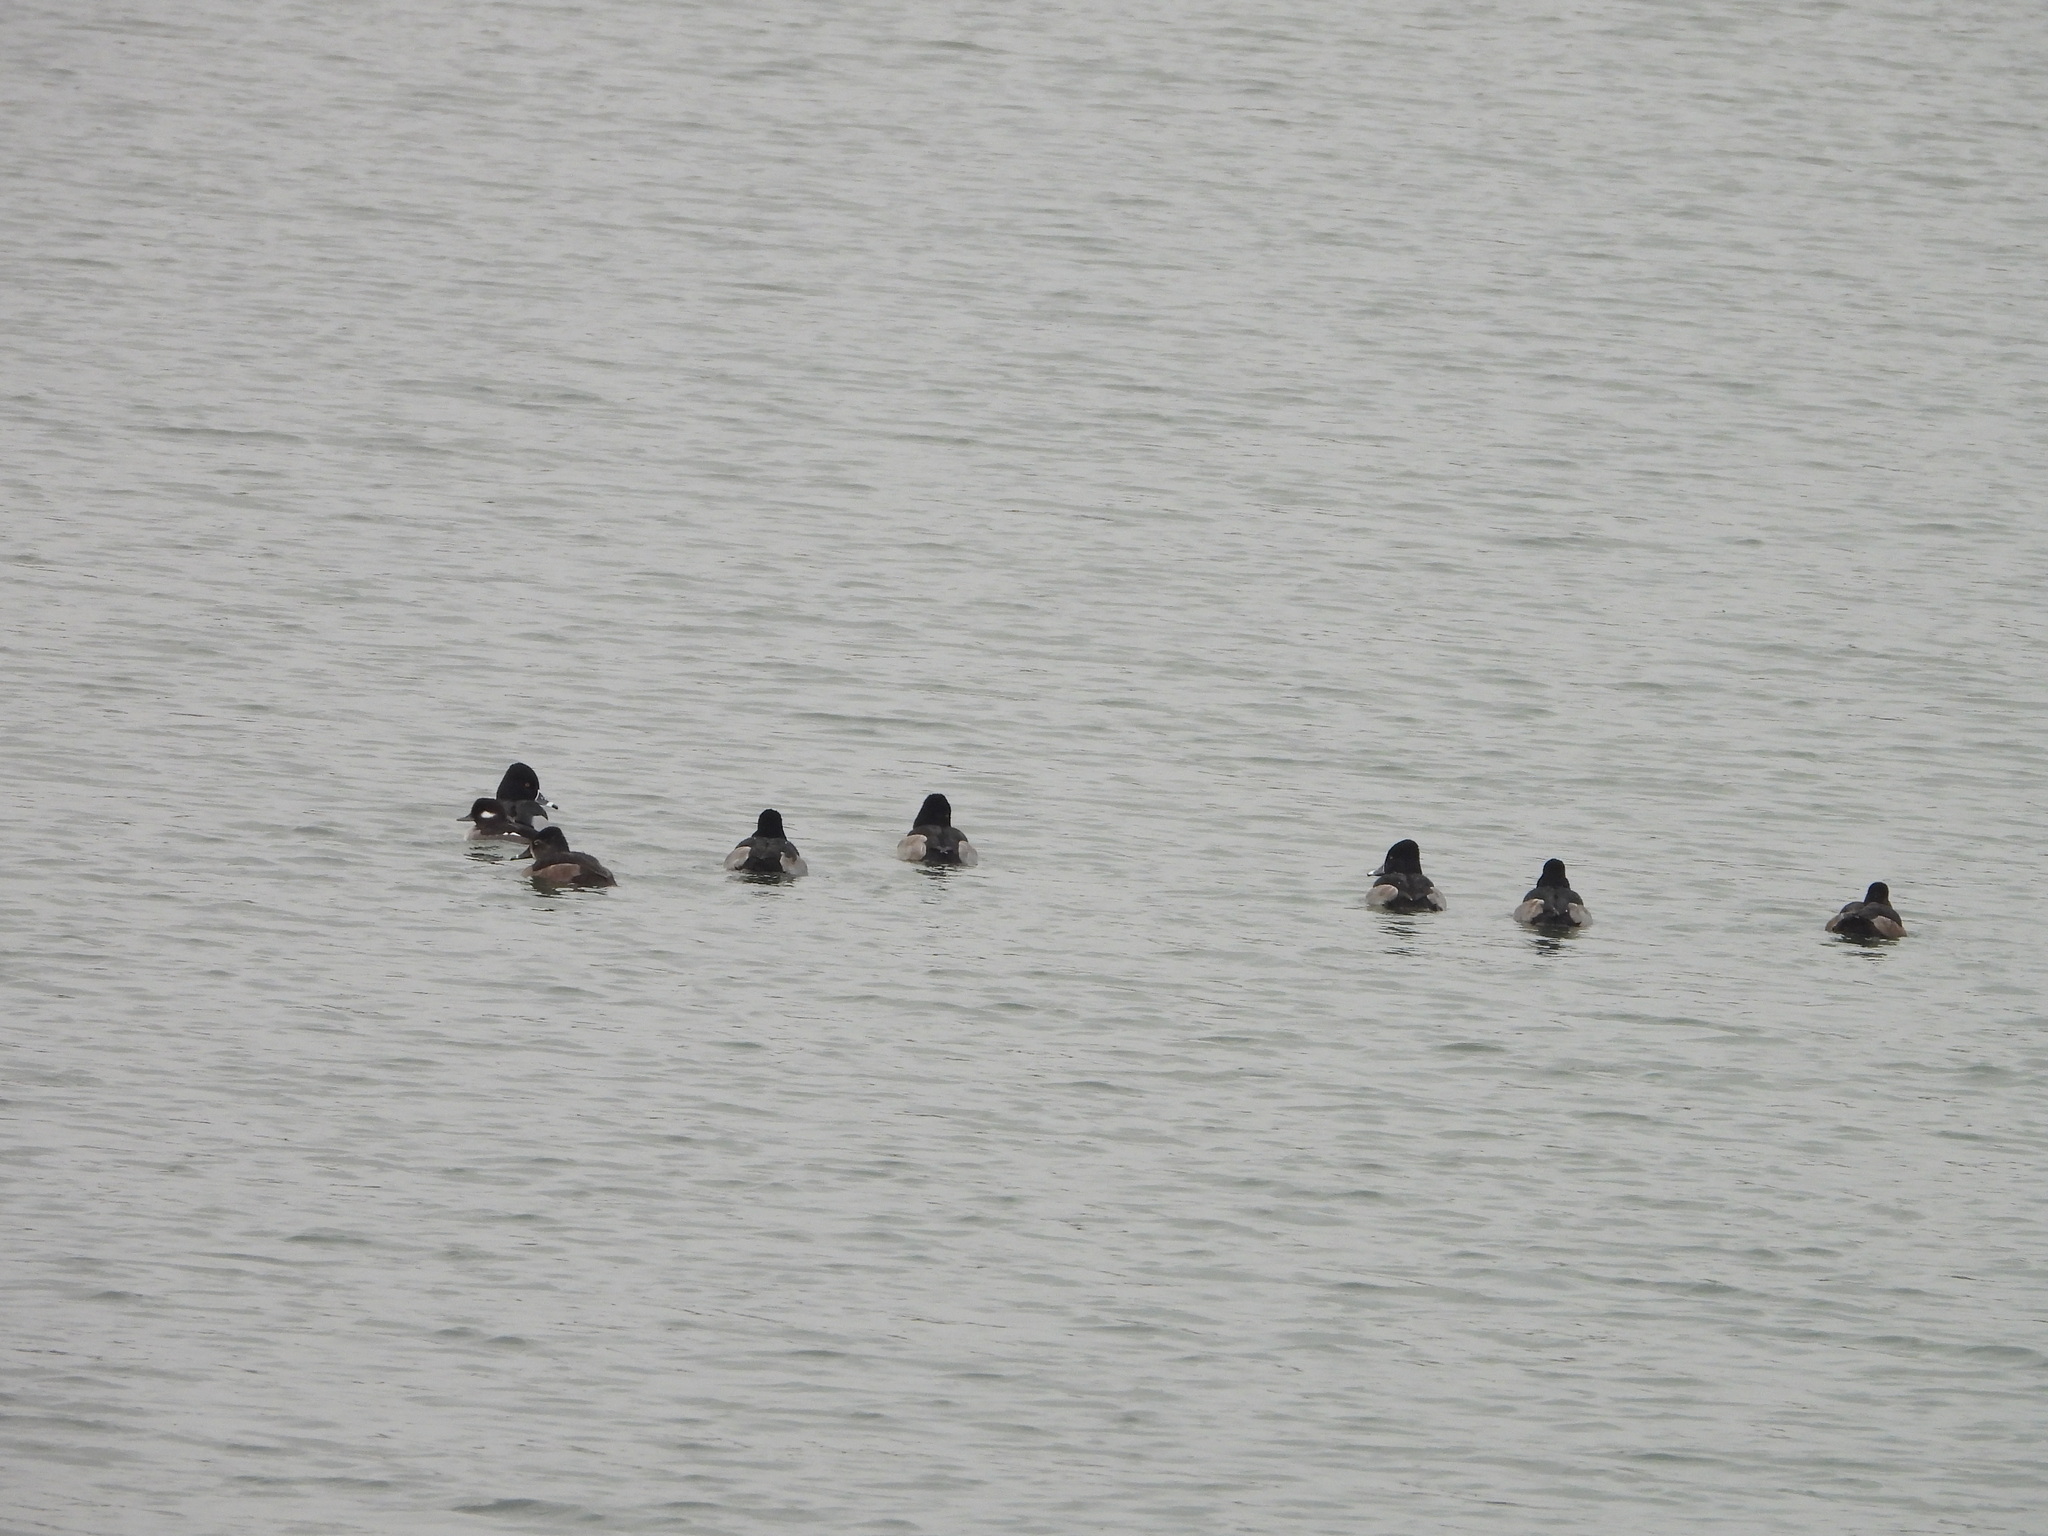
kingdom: Animalia
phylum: Chordata
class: Aves
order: Anseriformes
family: Anatidae
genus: Aythya
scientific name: Aythya collaris
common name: Ring-necked duck
